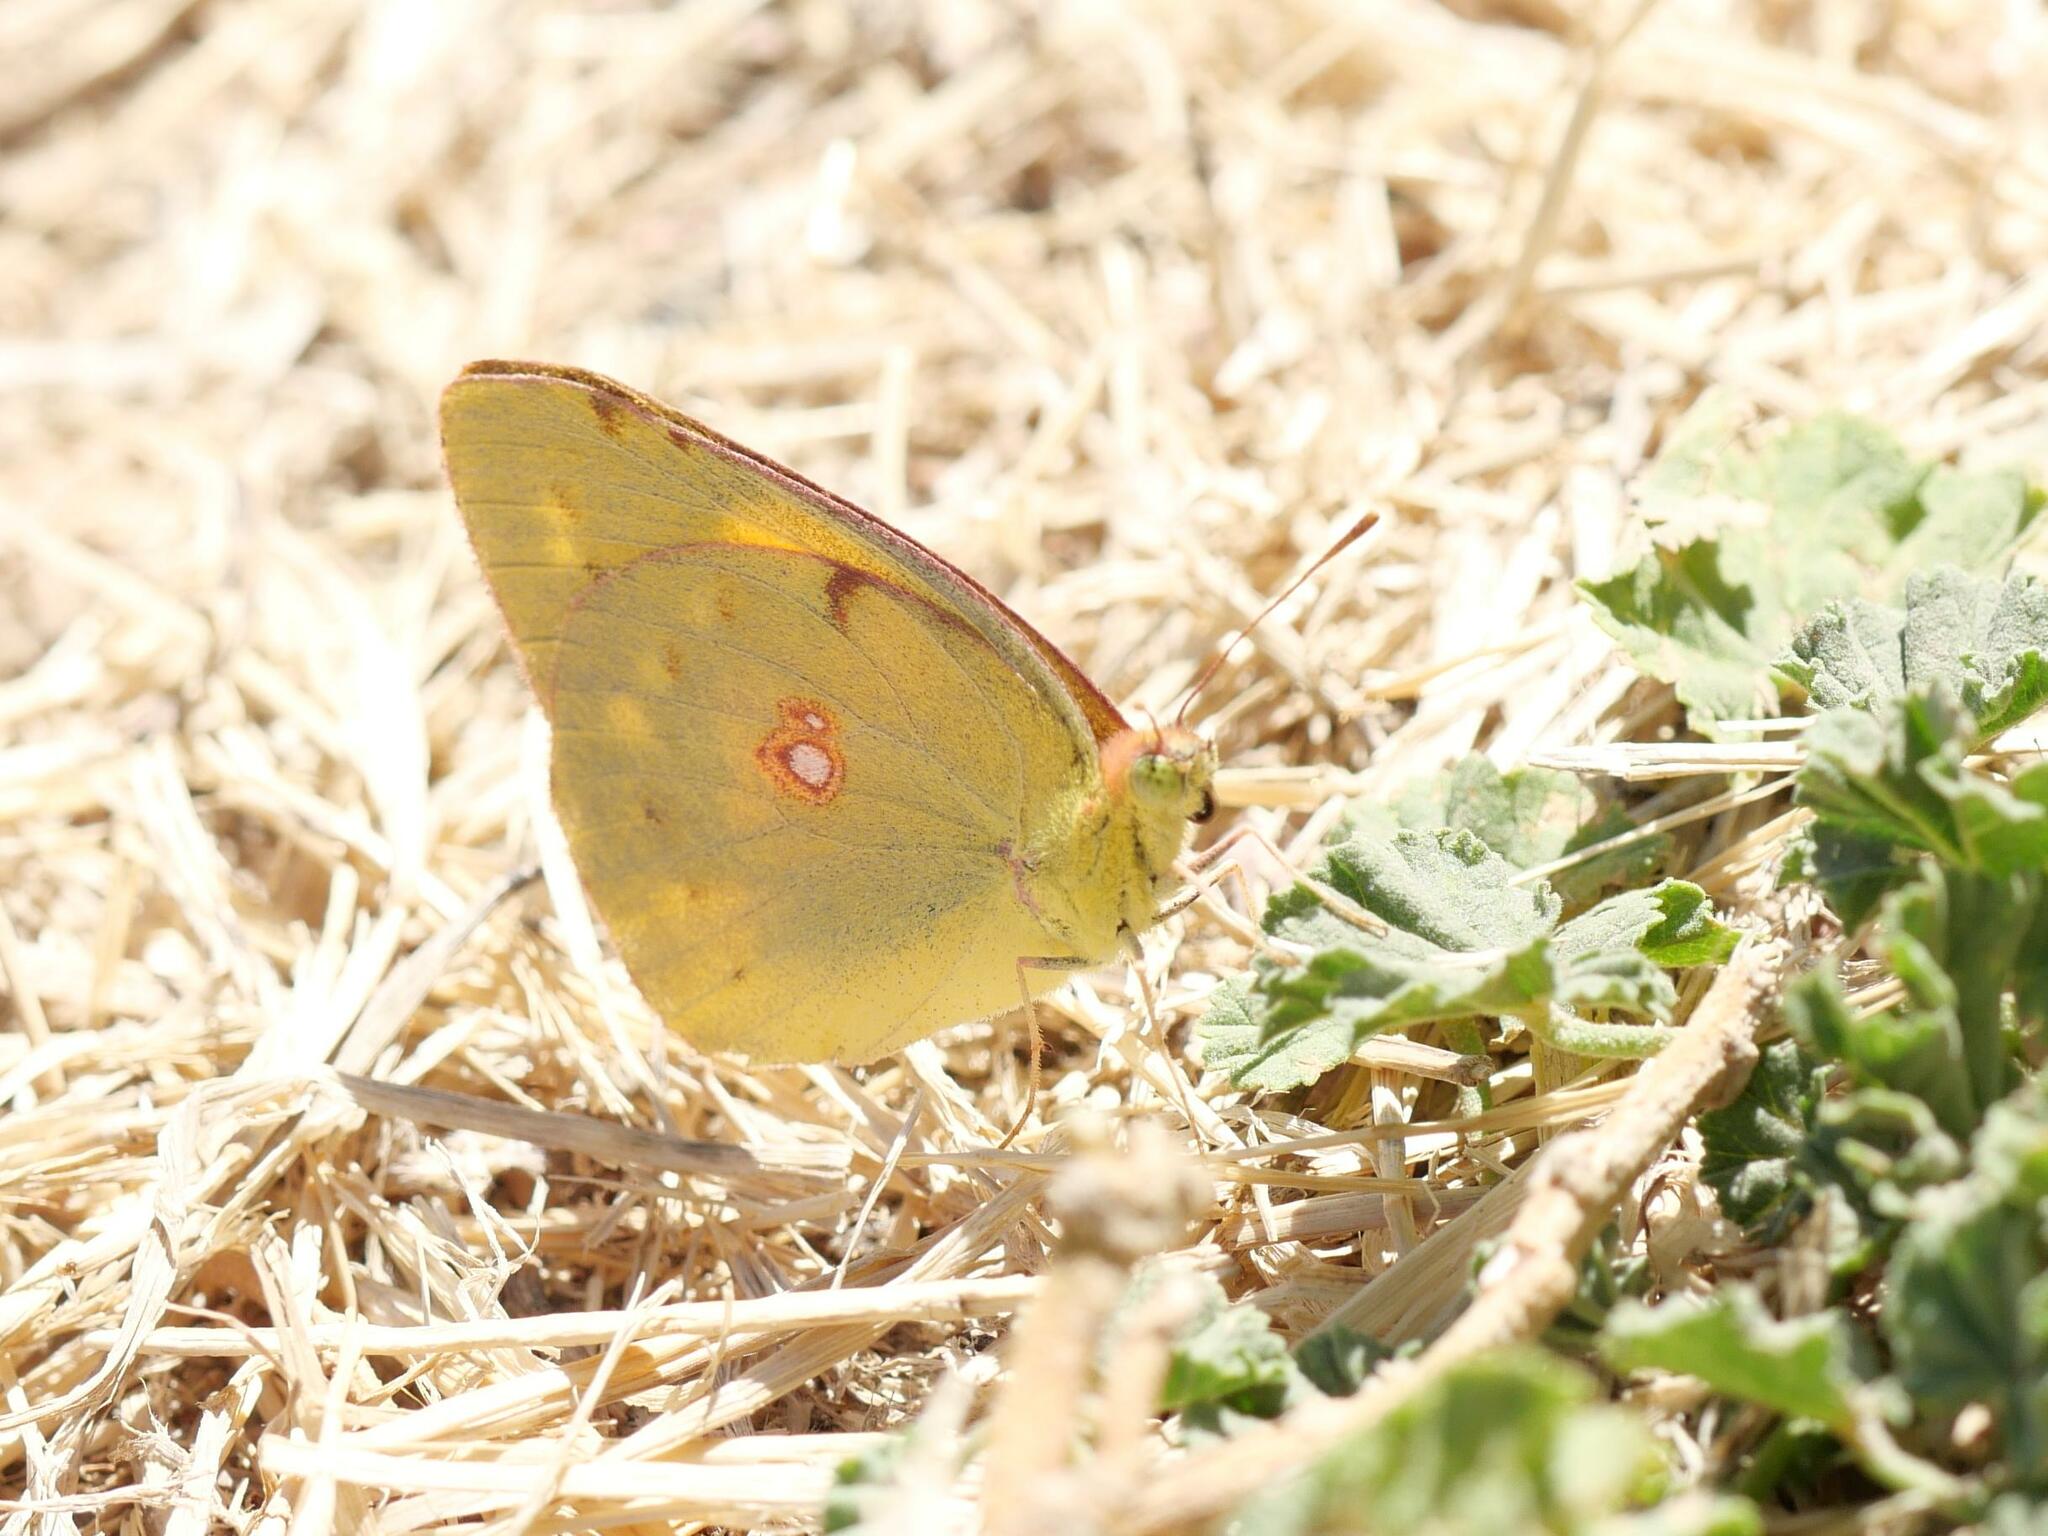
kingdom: Animalia
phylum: Arthropoda
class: Insecta
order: Lepidoptera
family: Pieridae
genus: Colias
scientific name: Colias croceus
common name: Clouded yellow
